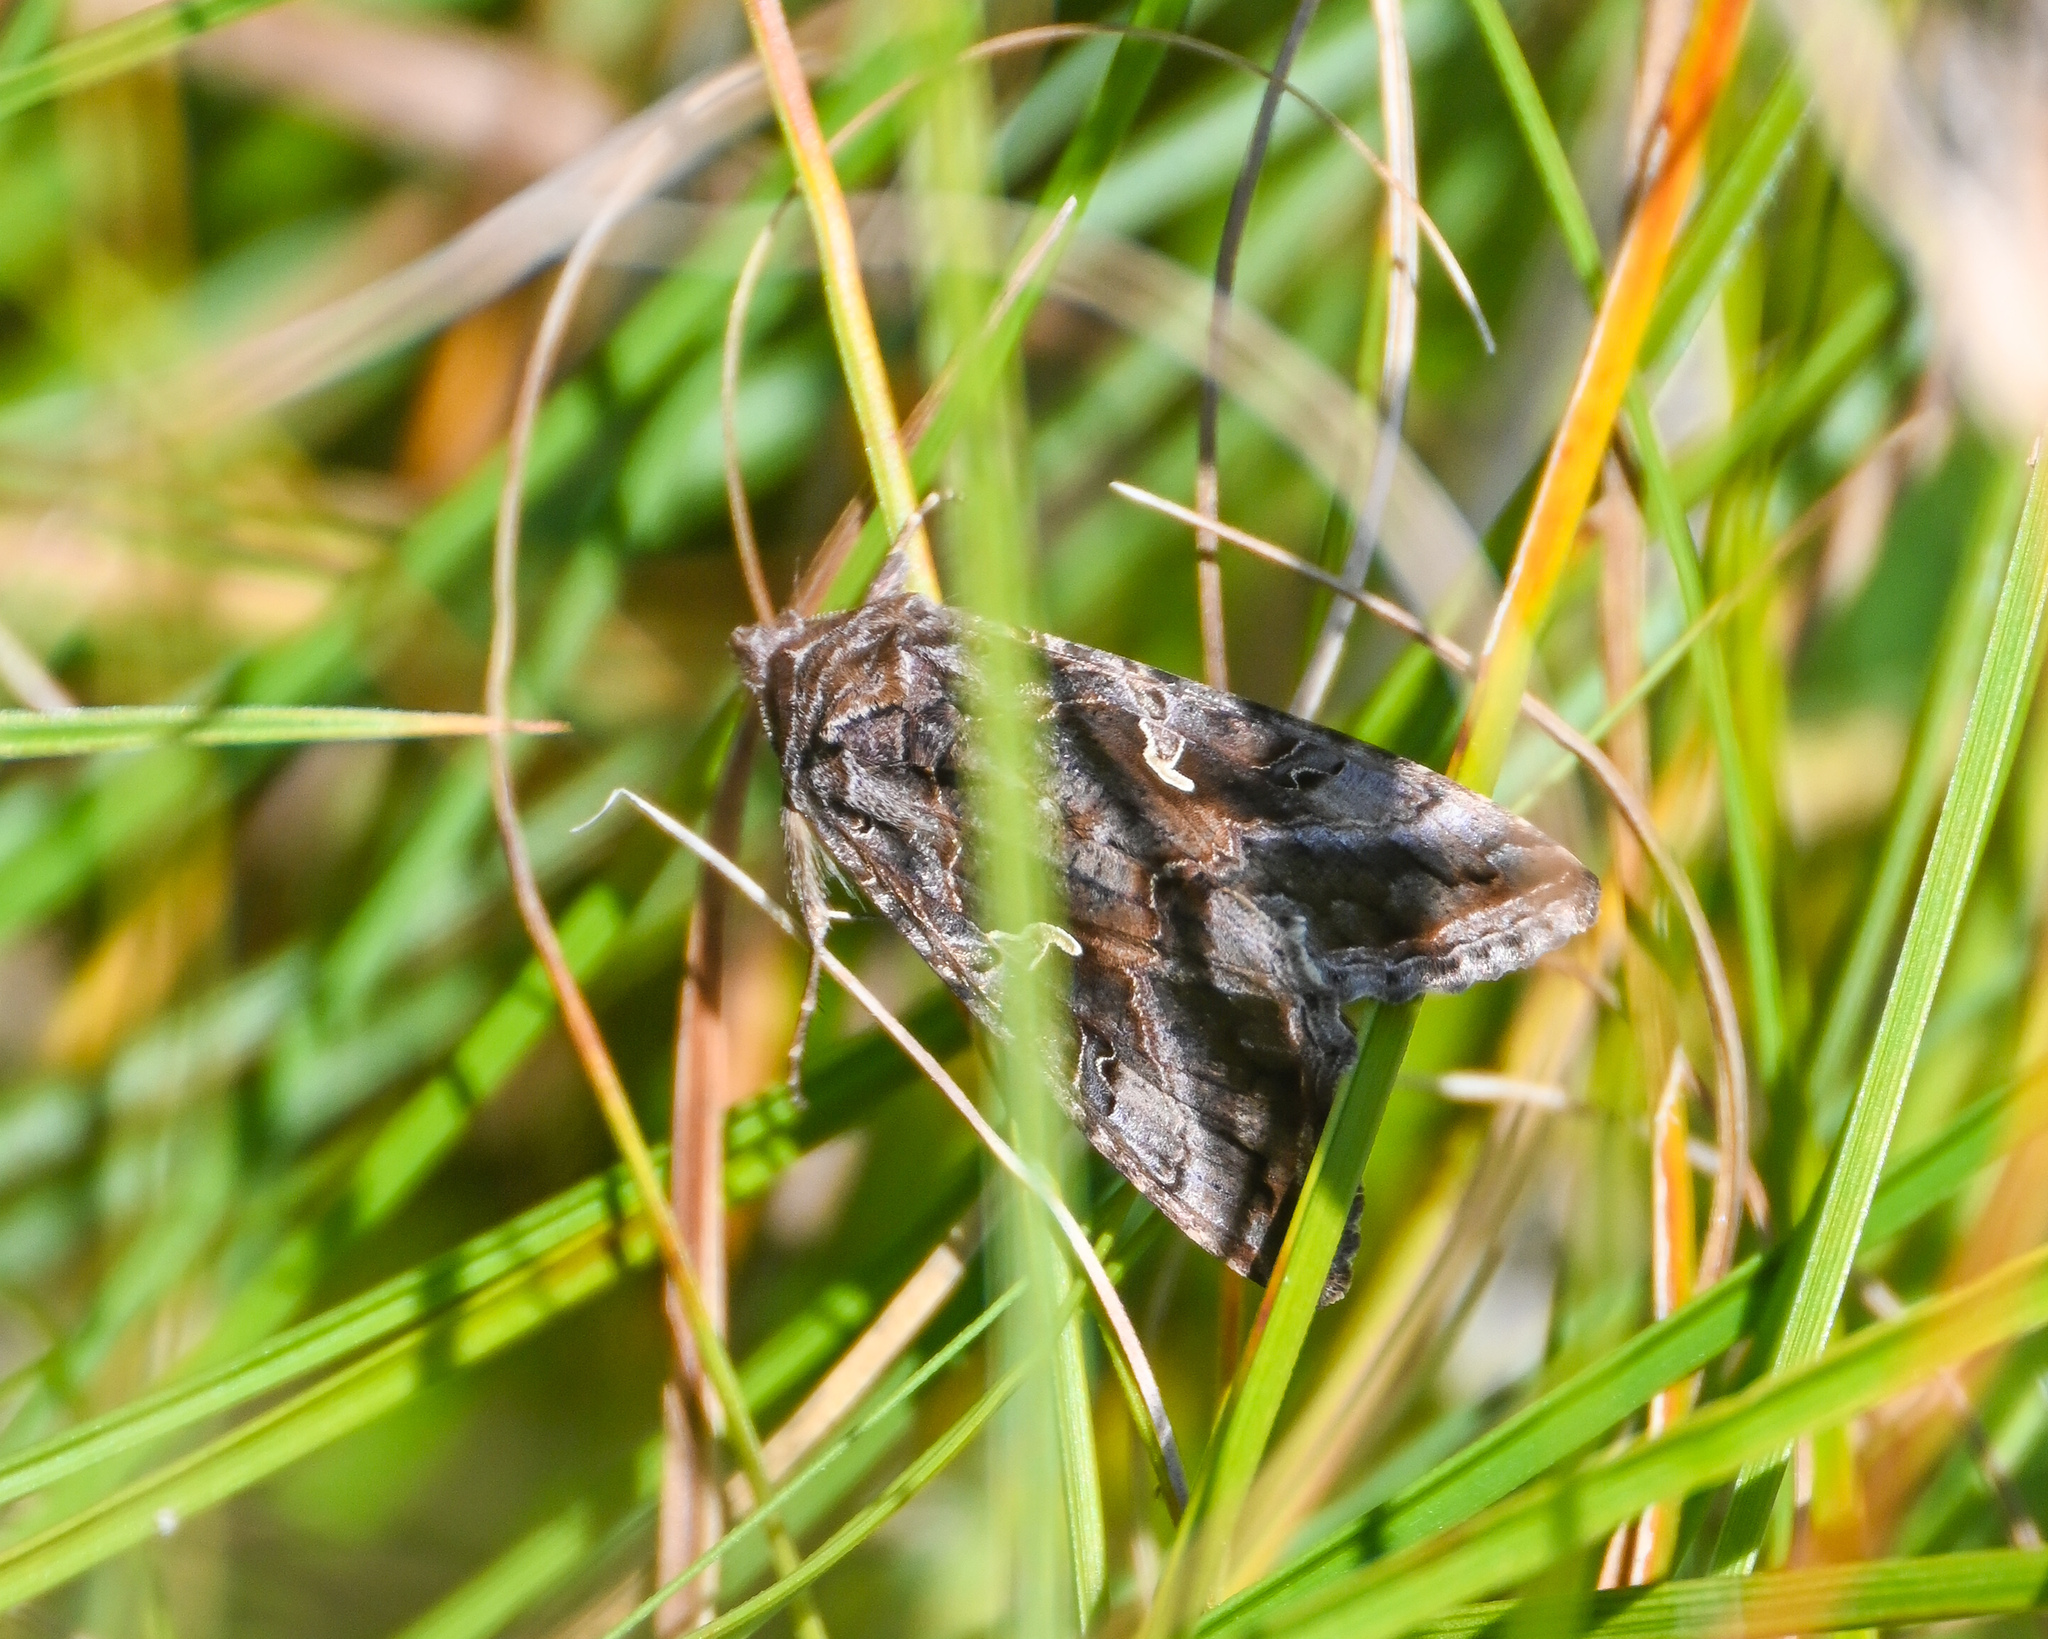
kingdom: Animalia
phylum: Arthropoda
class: Insecta
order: Lepidoptera
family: Noctuidae
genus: Autographa
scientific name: Autographa gamma
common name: Silver y
